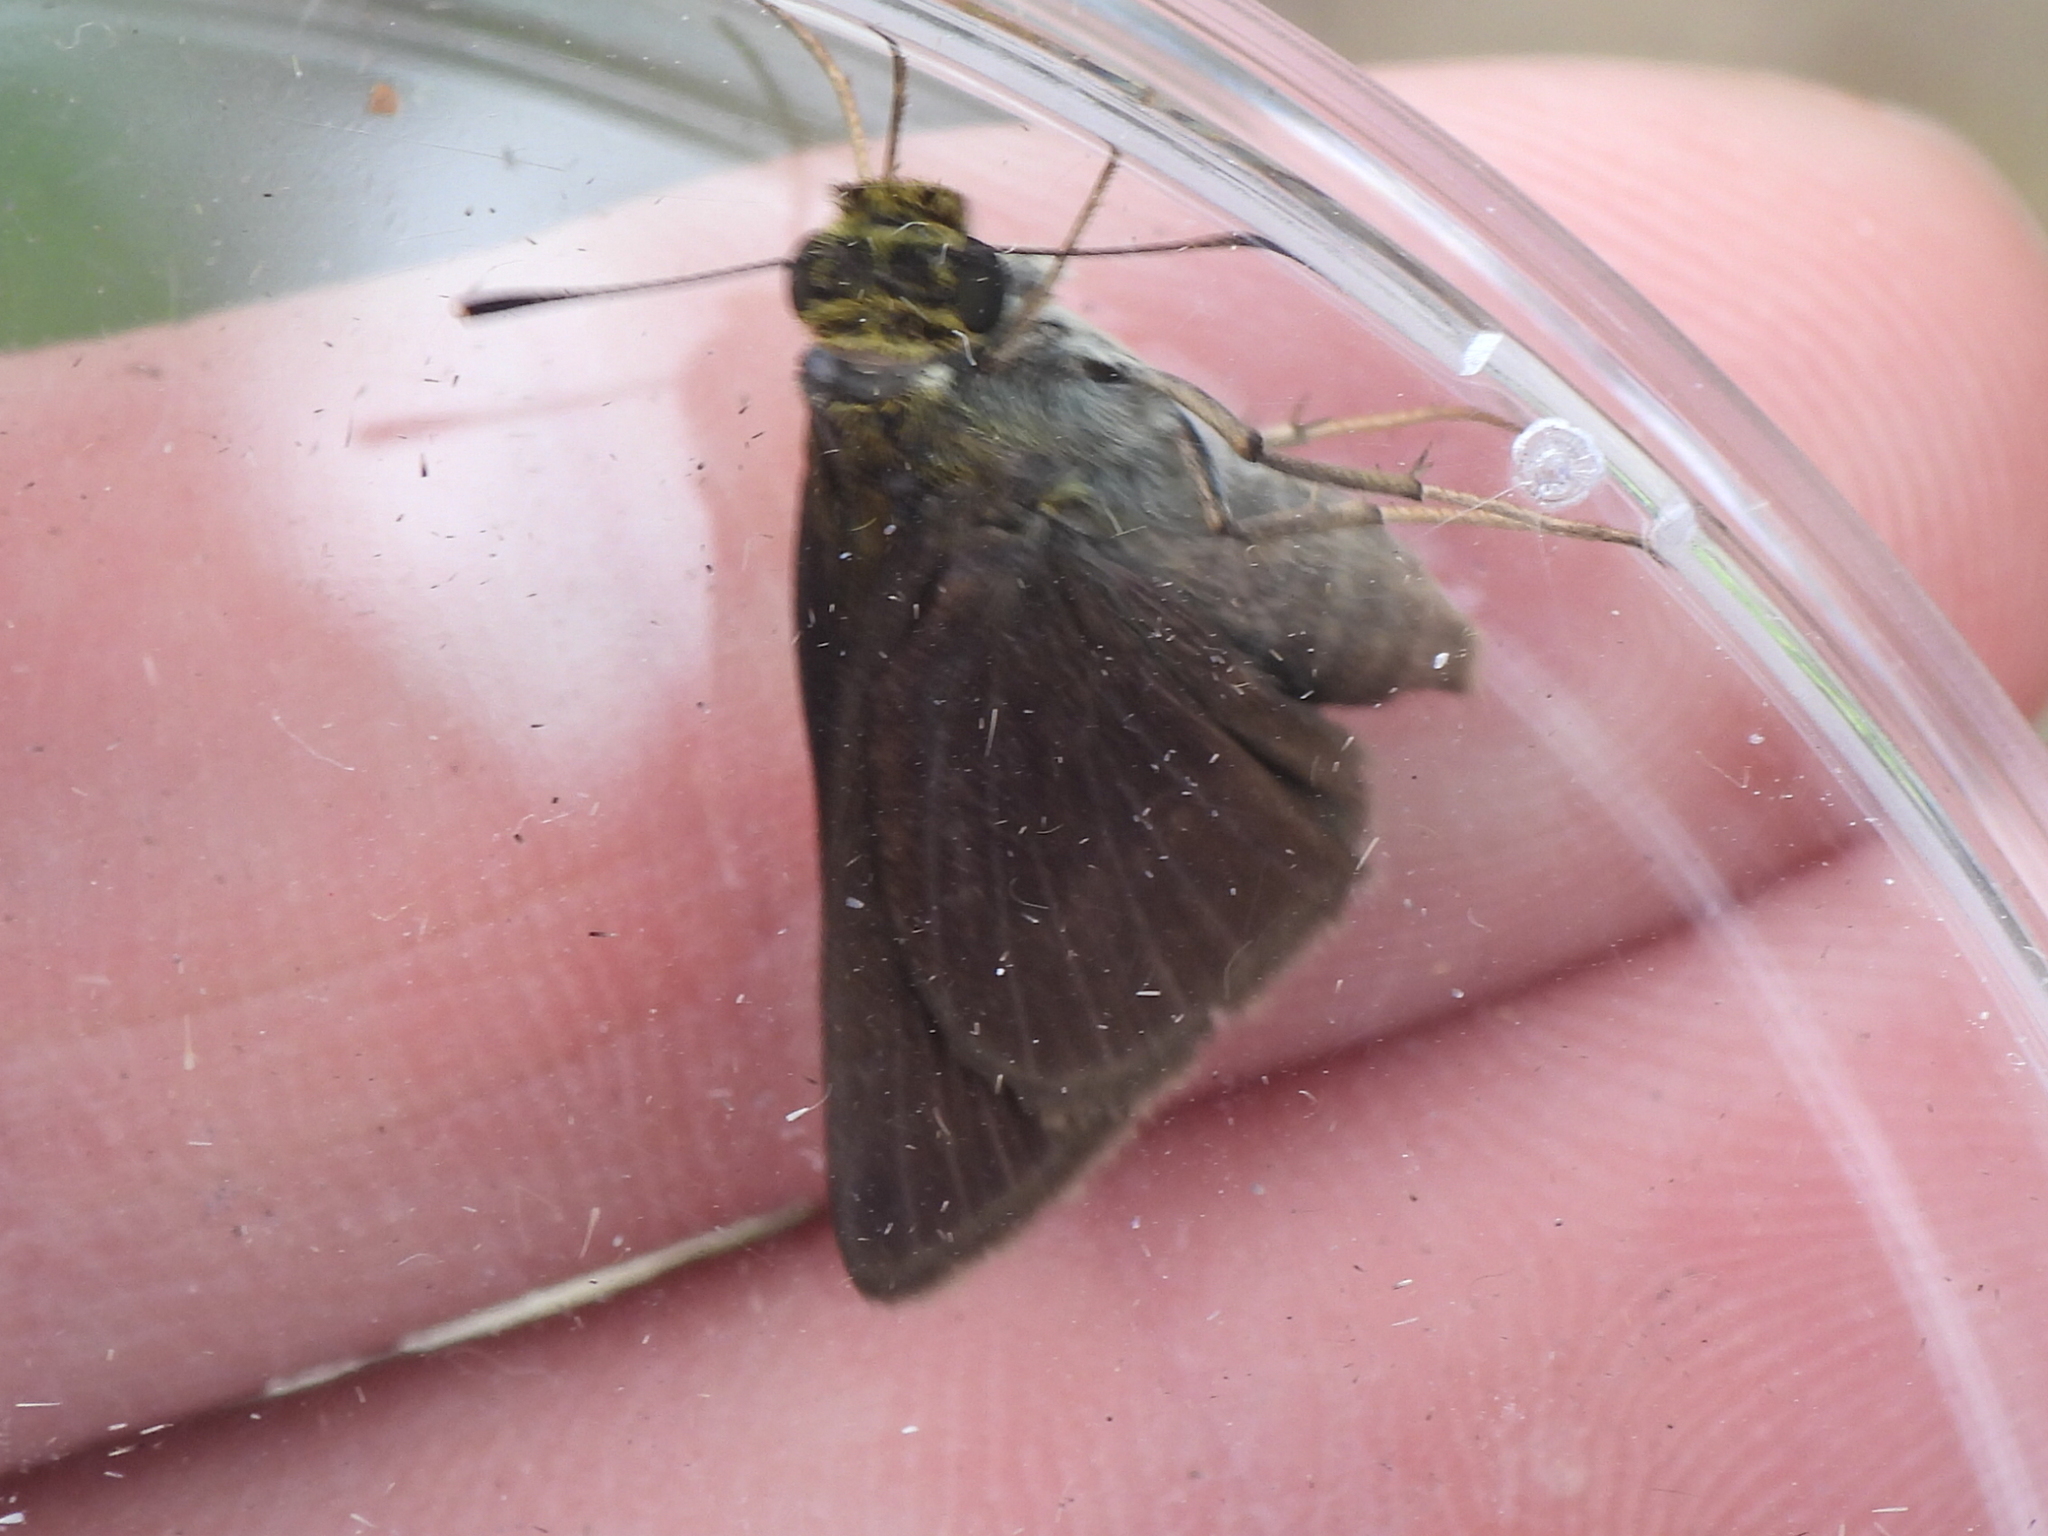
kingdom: Animalia
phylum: Arthropoda
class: Insecta
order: Lepidoptera
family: Hesperiidae
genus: Euphyes
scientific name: Euphyes vestris
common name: Dun skipper
